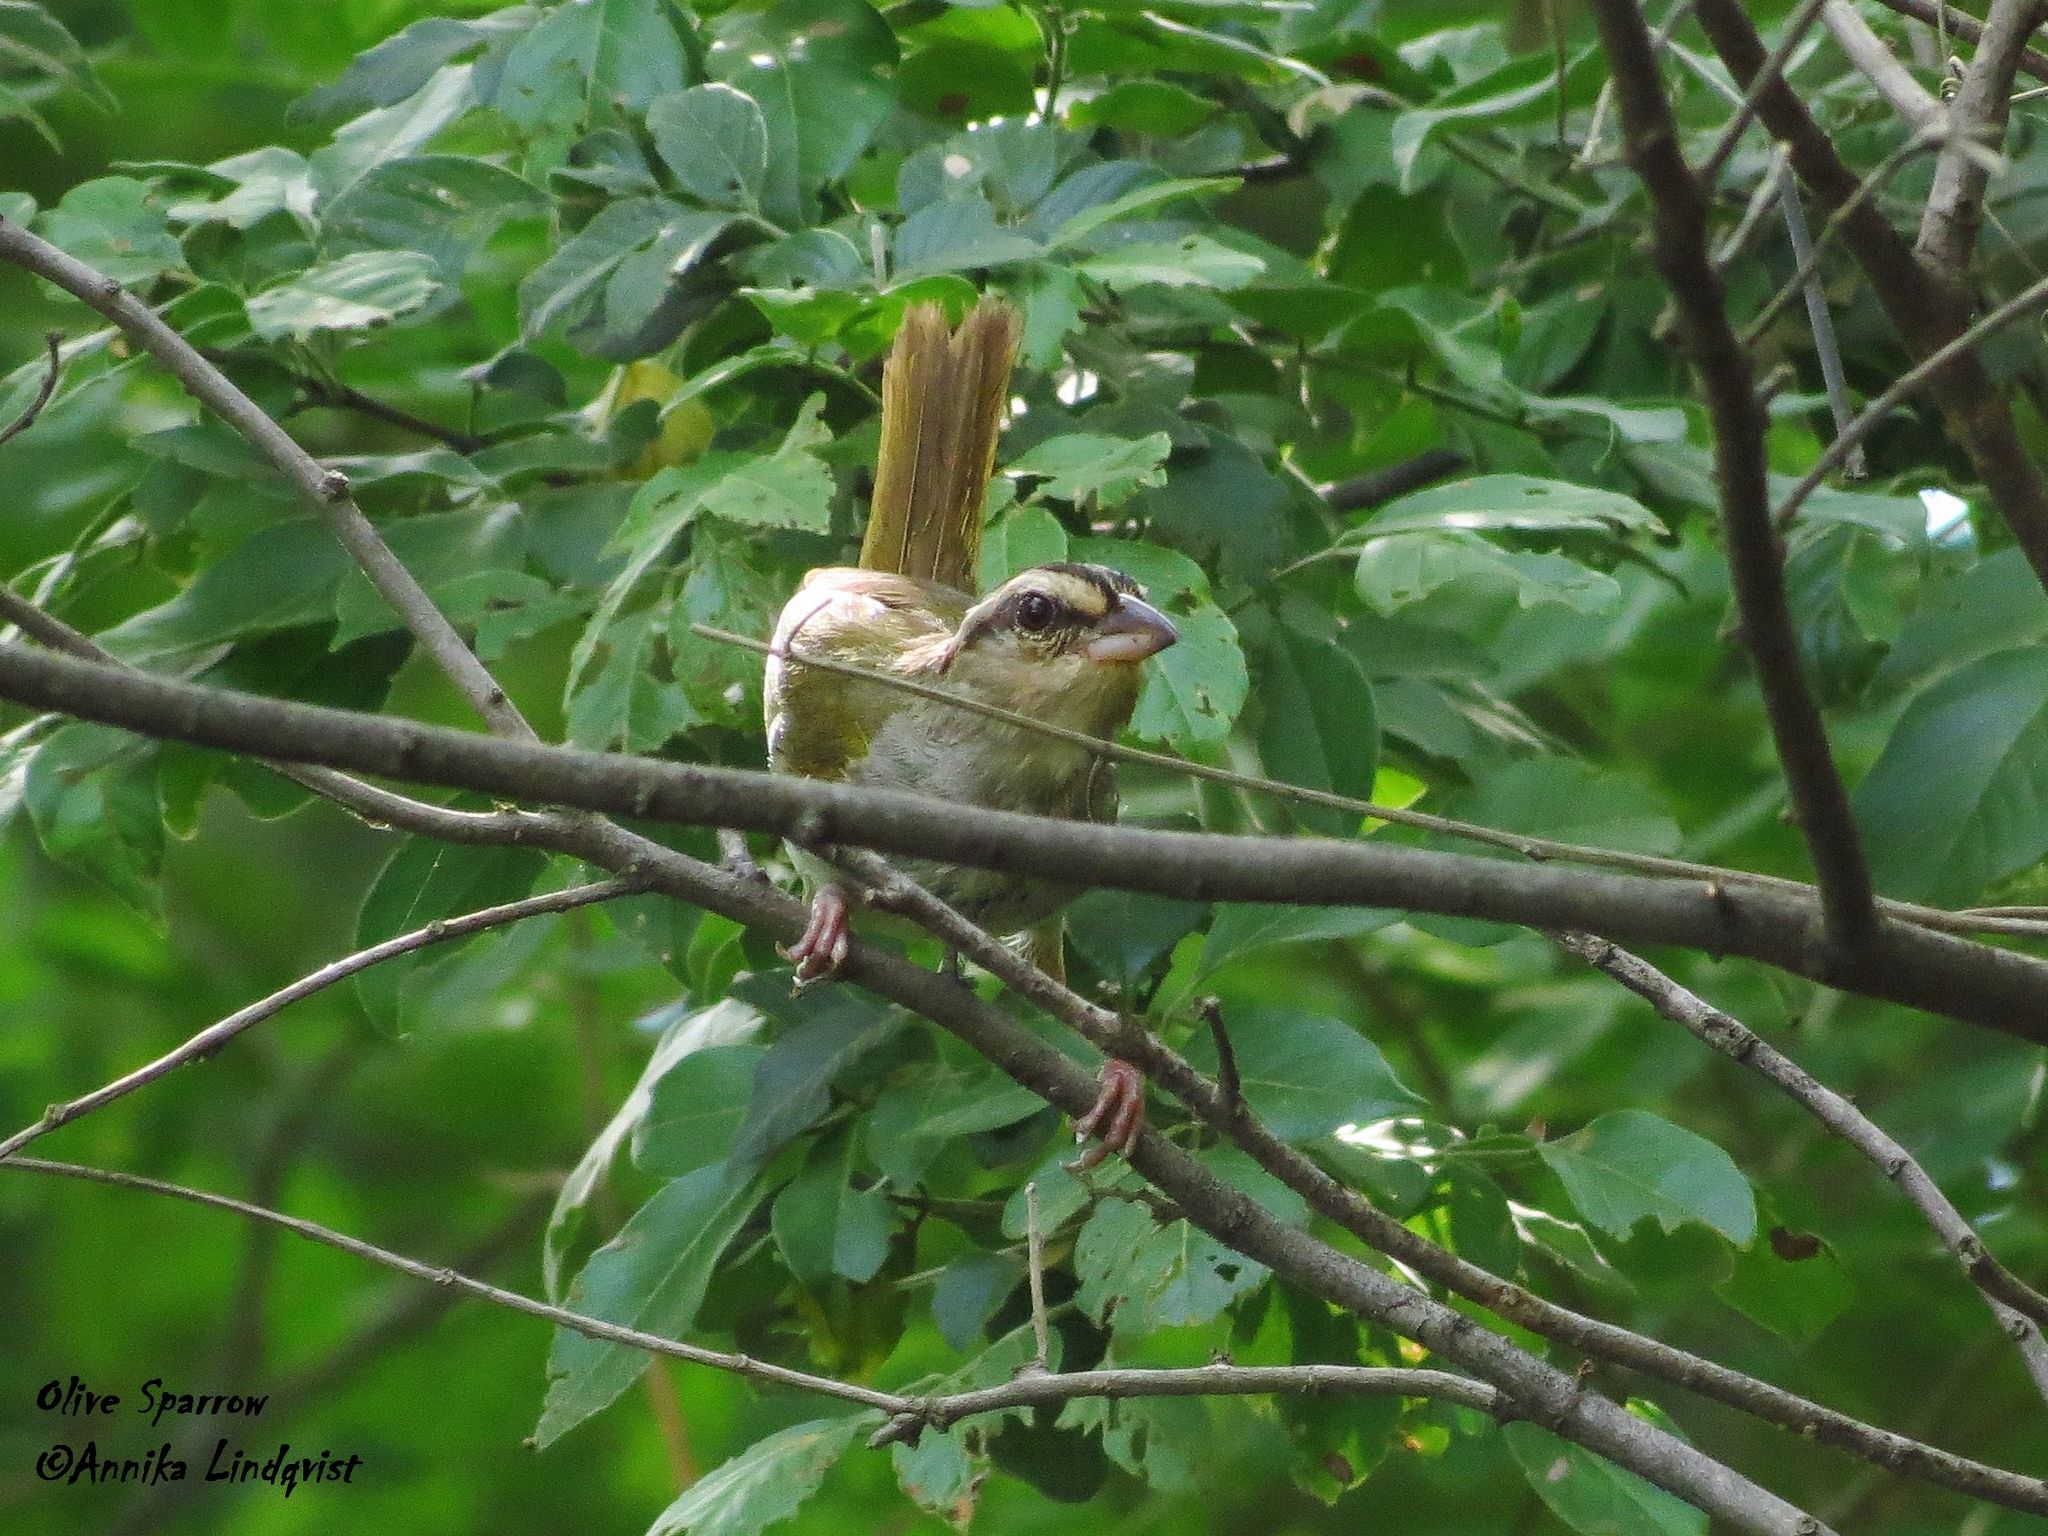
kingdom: Animalia
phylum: Chordata
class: Aves
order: Passeriformes
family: Passerellidae
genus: Arremonops
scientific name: Arremonops rufivirgatus
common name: Olive sparrow
